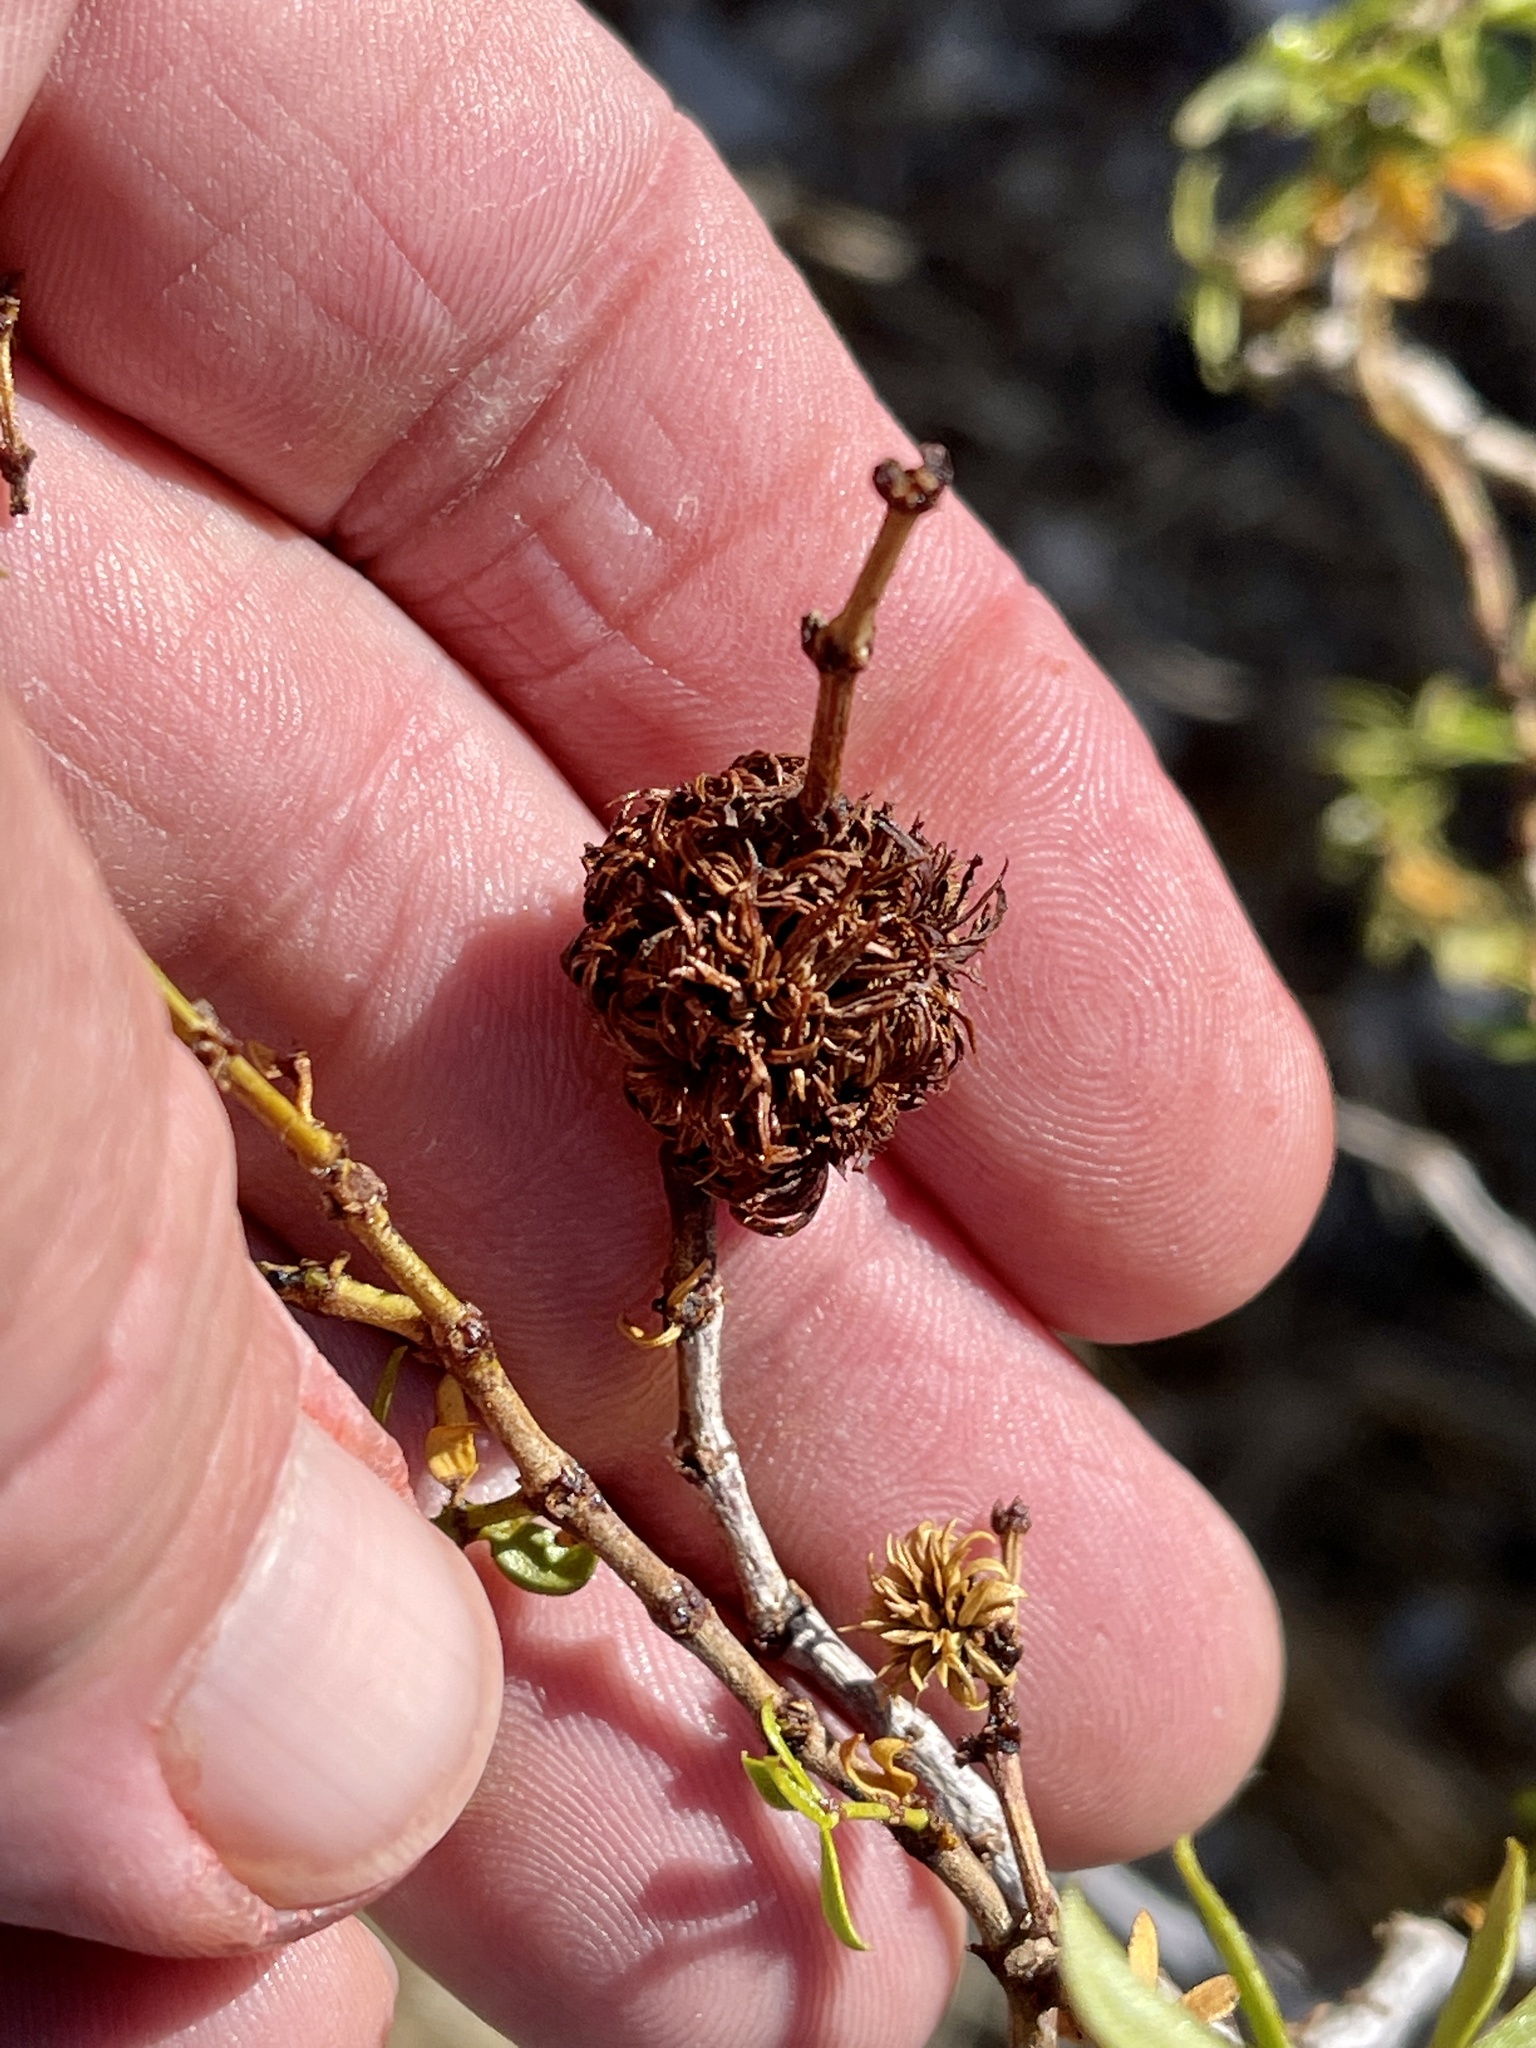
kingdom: Animalia
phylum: Arthropoda
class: Insecta
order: Diptera
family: Cecidomyiidae
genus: Asphondylia
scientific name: Asphondylia auripila
